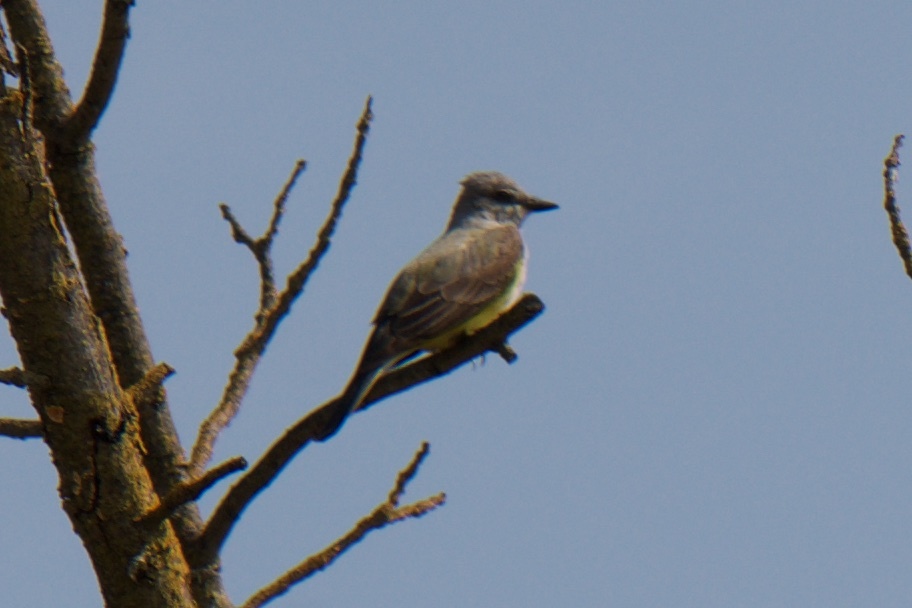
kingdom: Animalia
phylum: Chordata
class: Aves
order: Passeriformes
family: Tyrannidae
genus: Tyrannus
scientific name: Tyrannus verticalis
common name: Western kingbird
